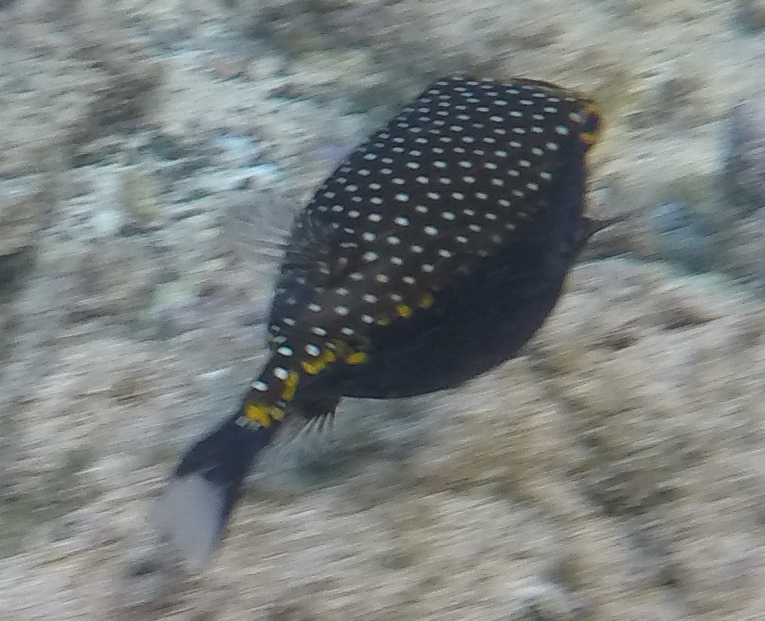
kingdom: Animalia
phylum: Chordata
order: Tetraodontiformes
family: Ostraciidae
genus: Ostracion
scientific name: Ostracion meleagris
